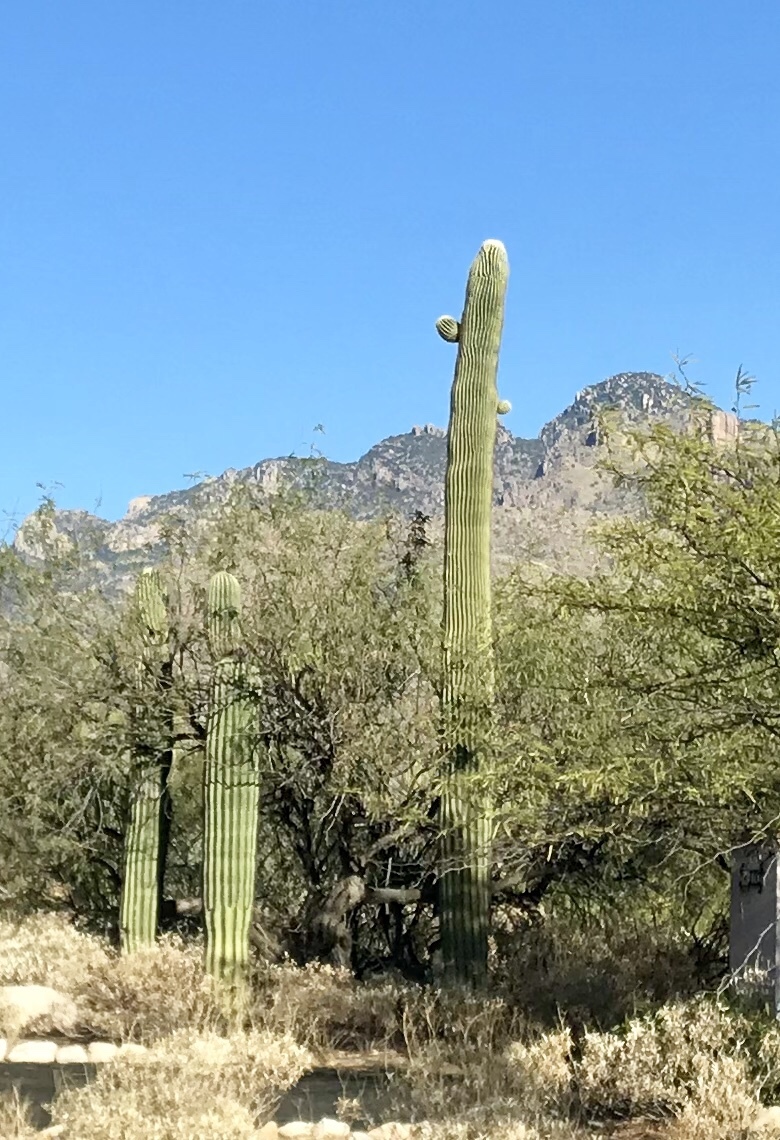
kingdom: Plantae
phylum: Tracheophyta
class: Magnoliopsida
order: Caryophyllales
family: Cactaceae
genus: Carnegiea
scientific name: Carnegiea gigantea
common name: Saguaro
